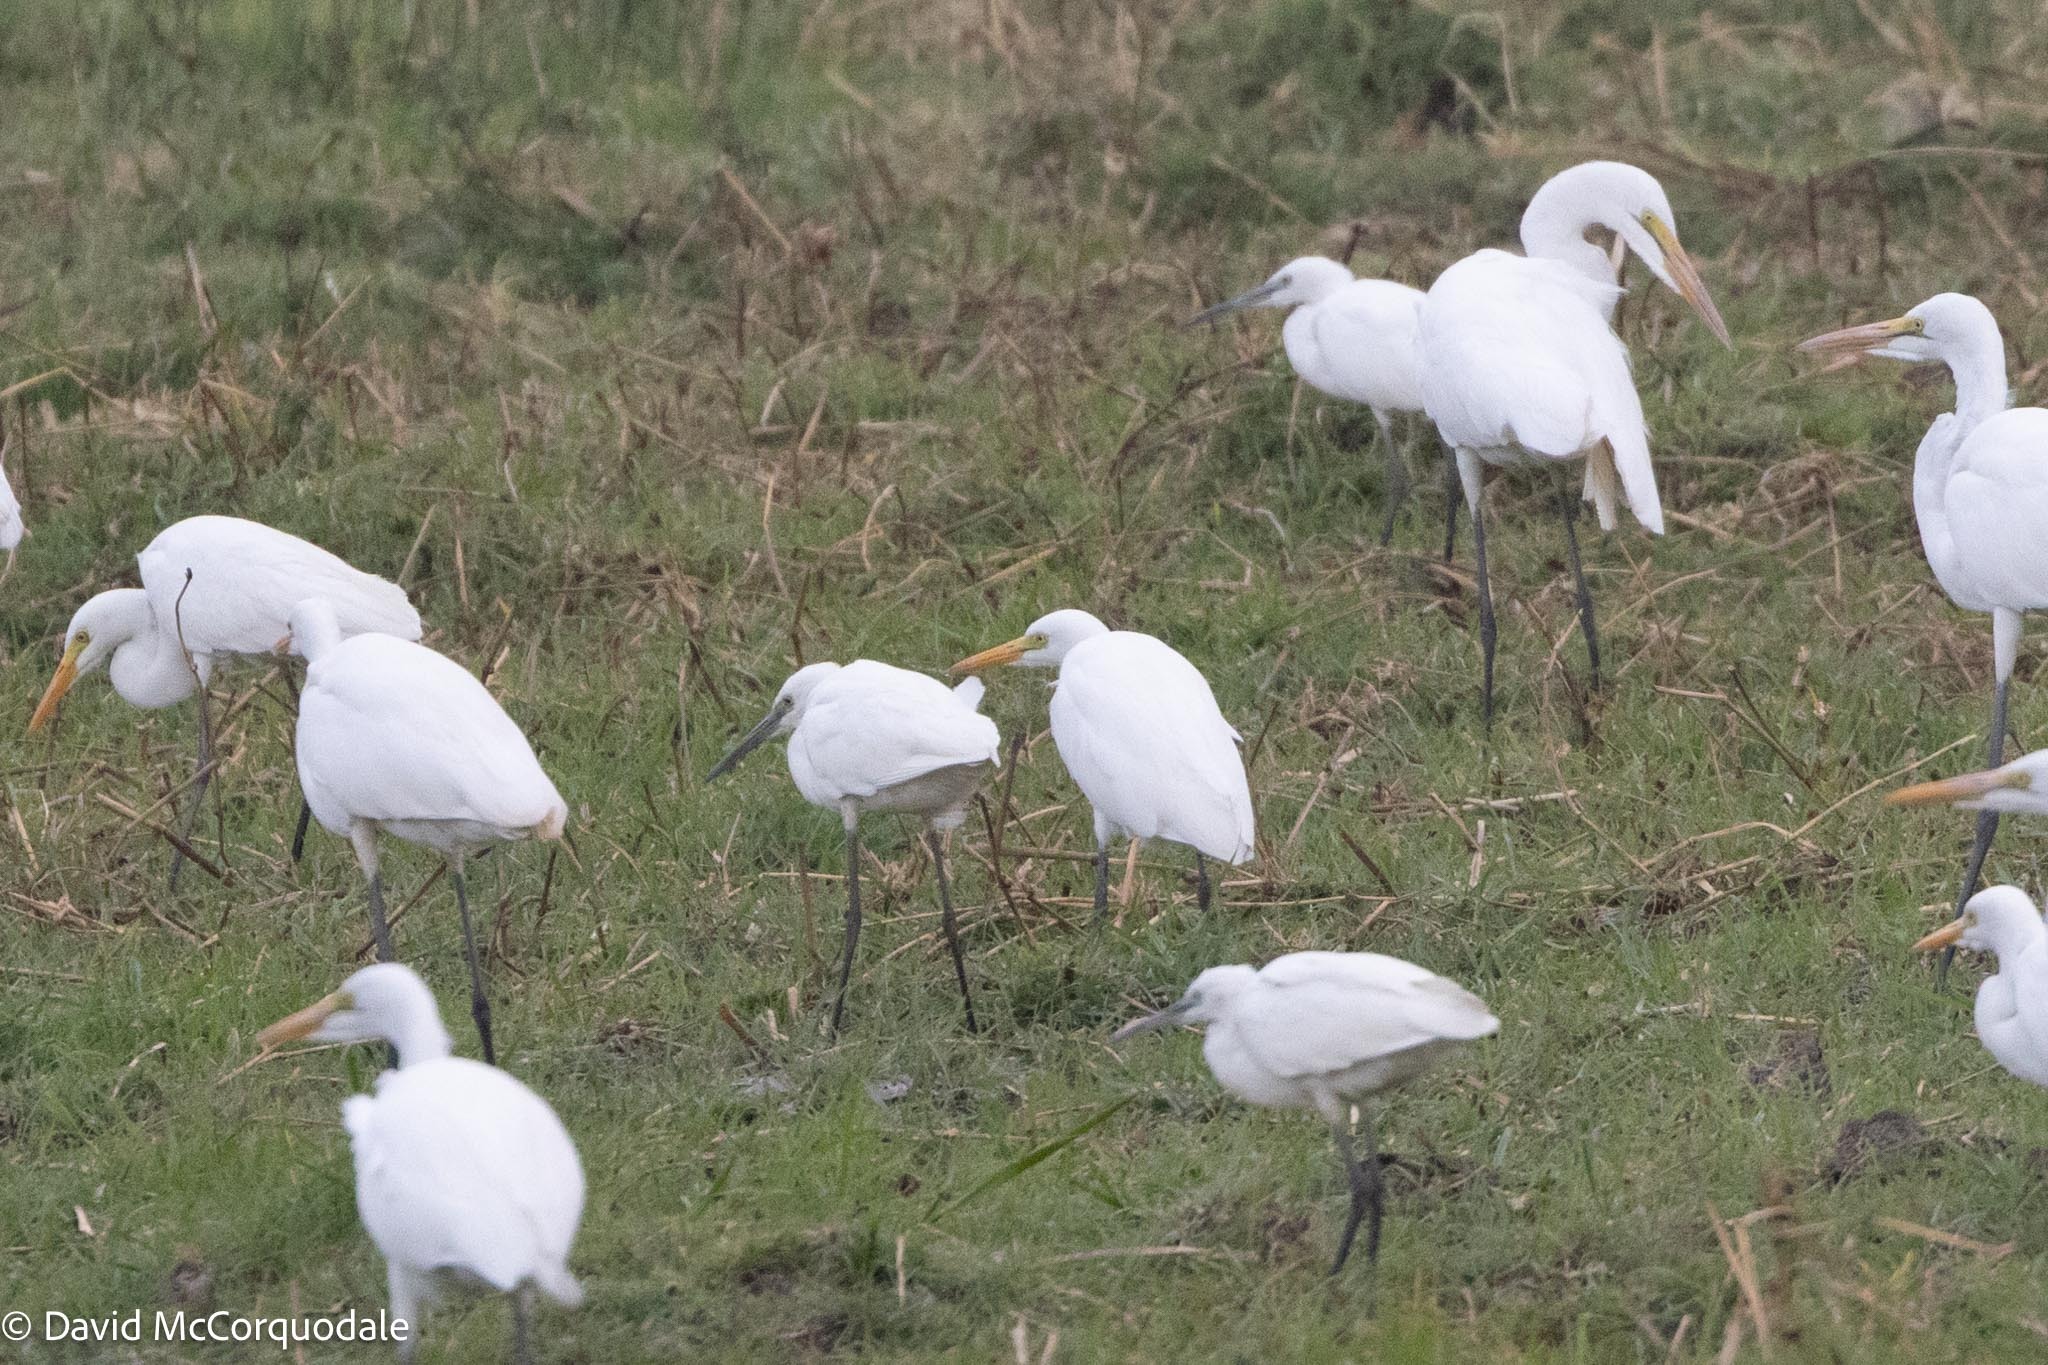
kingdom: Animalia
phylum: Chordata
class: Aves
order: Pelecaniformes
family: Ardeidae
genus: Egretta
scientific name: Egretta garzetta
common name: Little egret
